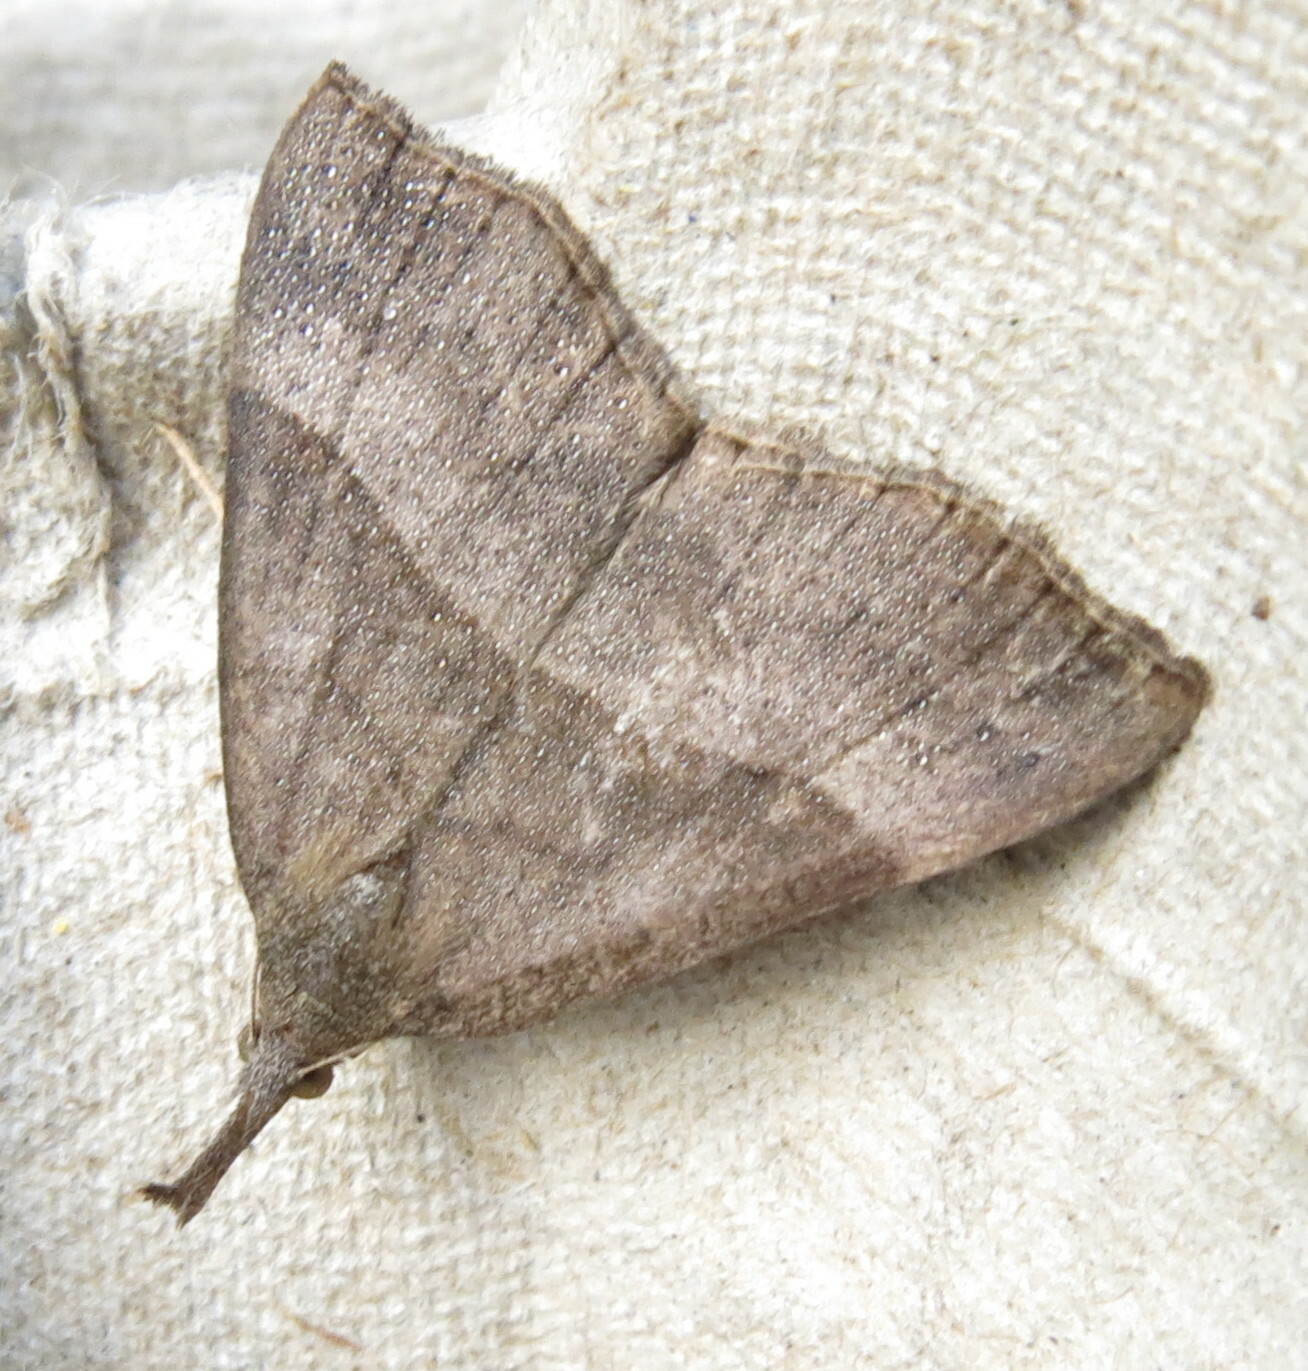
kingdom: Animalia
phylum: Arthropoda
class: Insecta
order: Lepidoptera
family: Erebidae
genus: Hypena
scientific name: Hypena proboscidalis
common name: Snout
